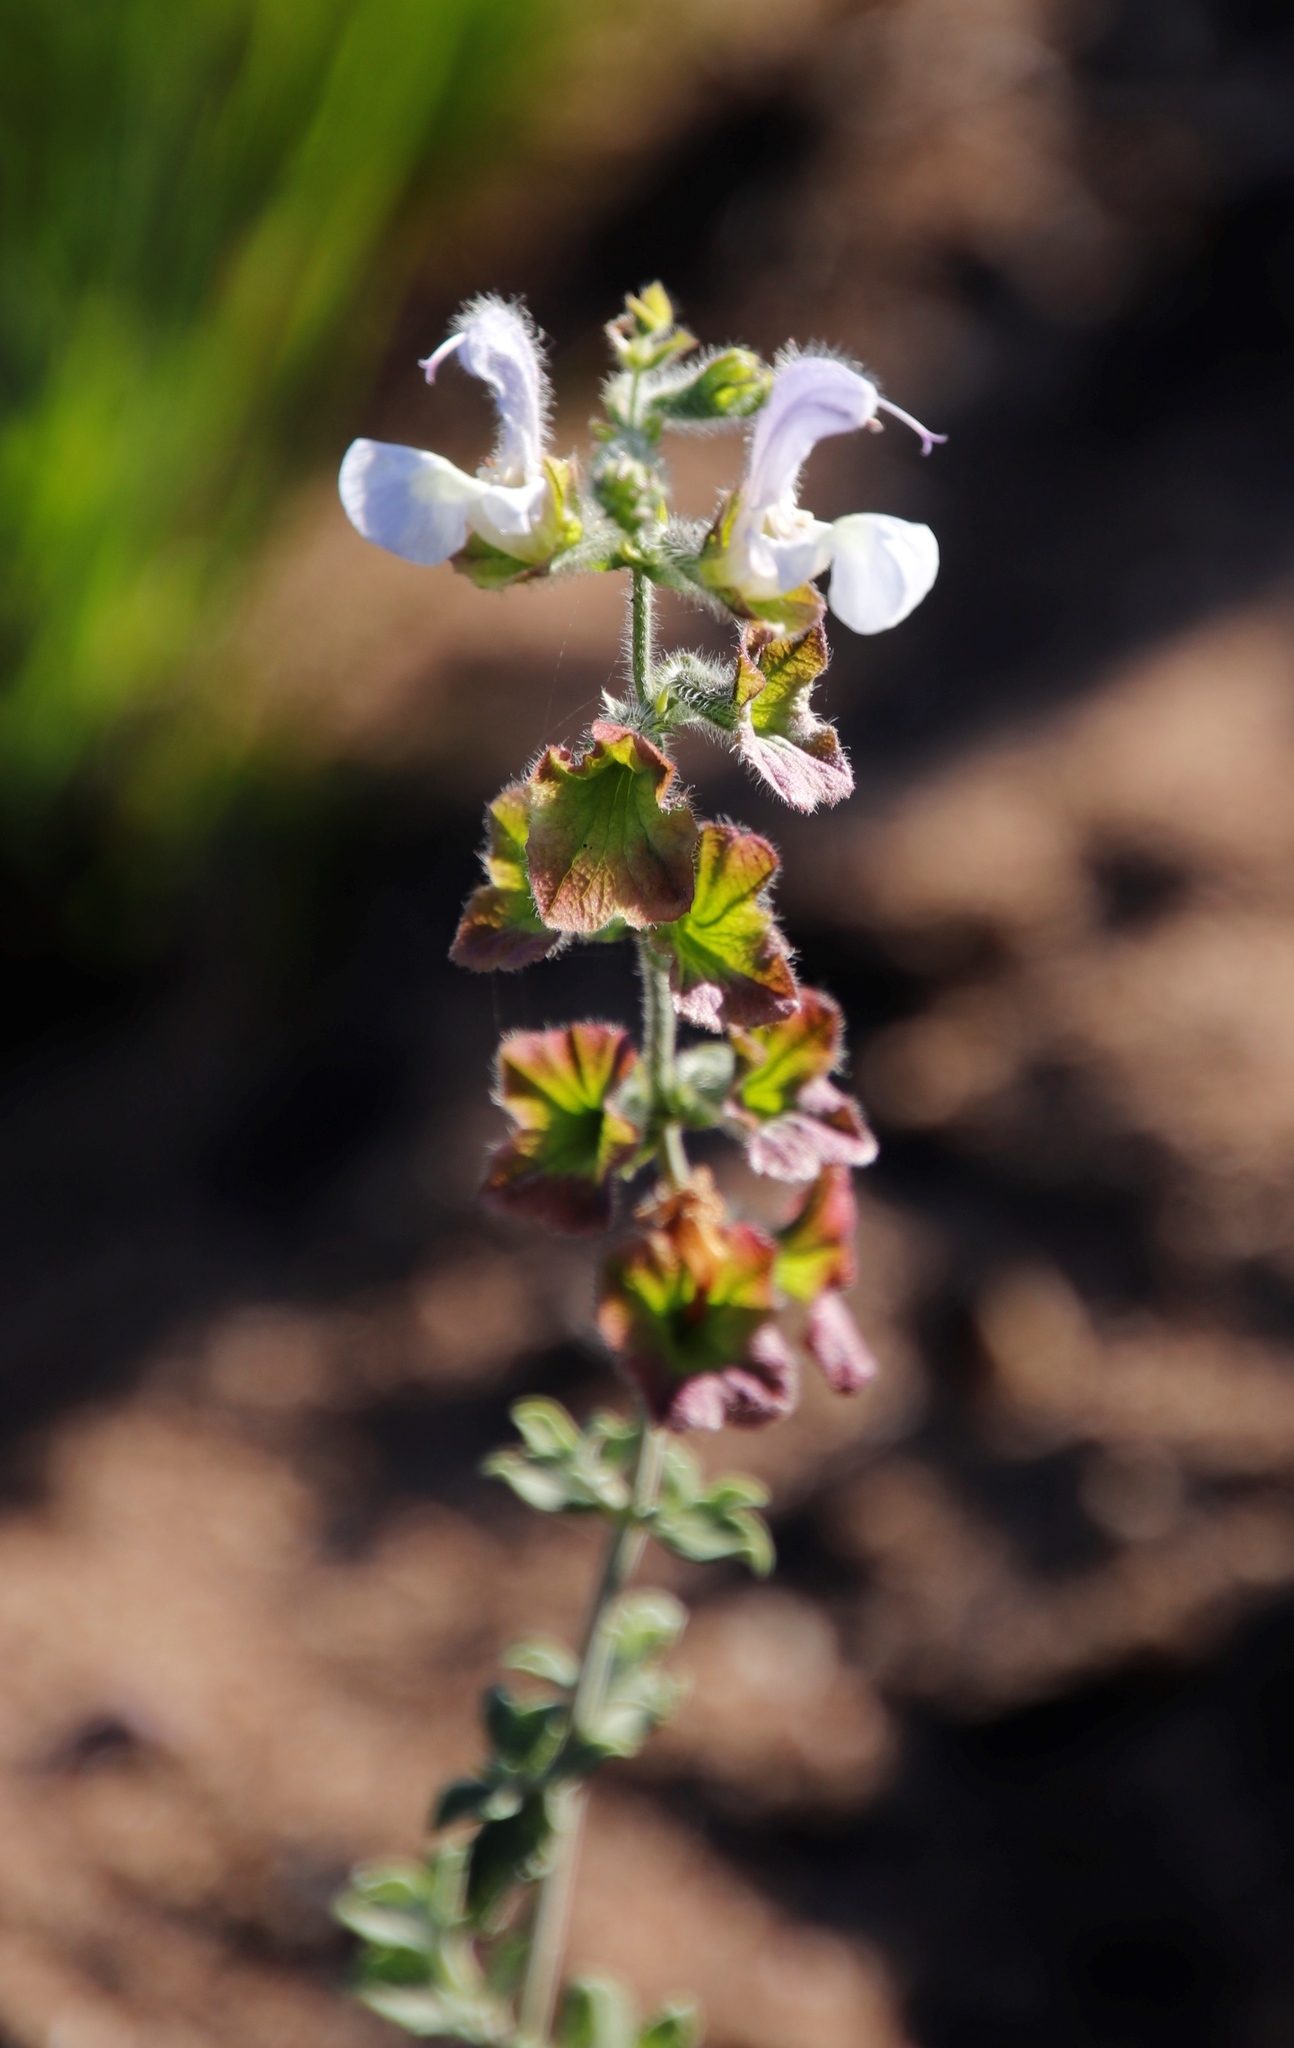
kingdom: Plantae
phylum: Tracheophyta
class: Magnoliopsida
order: Lamiales
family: Lamiaceae
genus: Salvia
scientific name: Salvia africana
